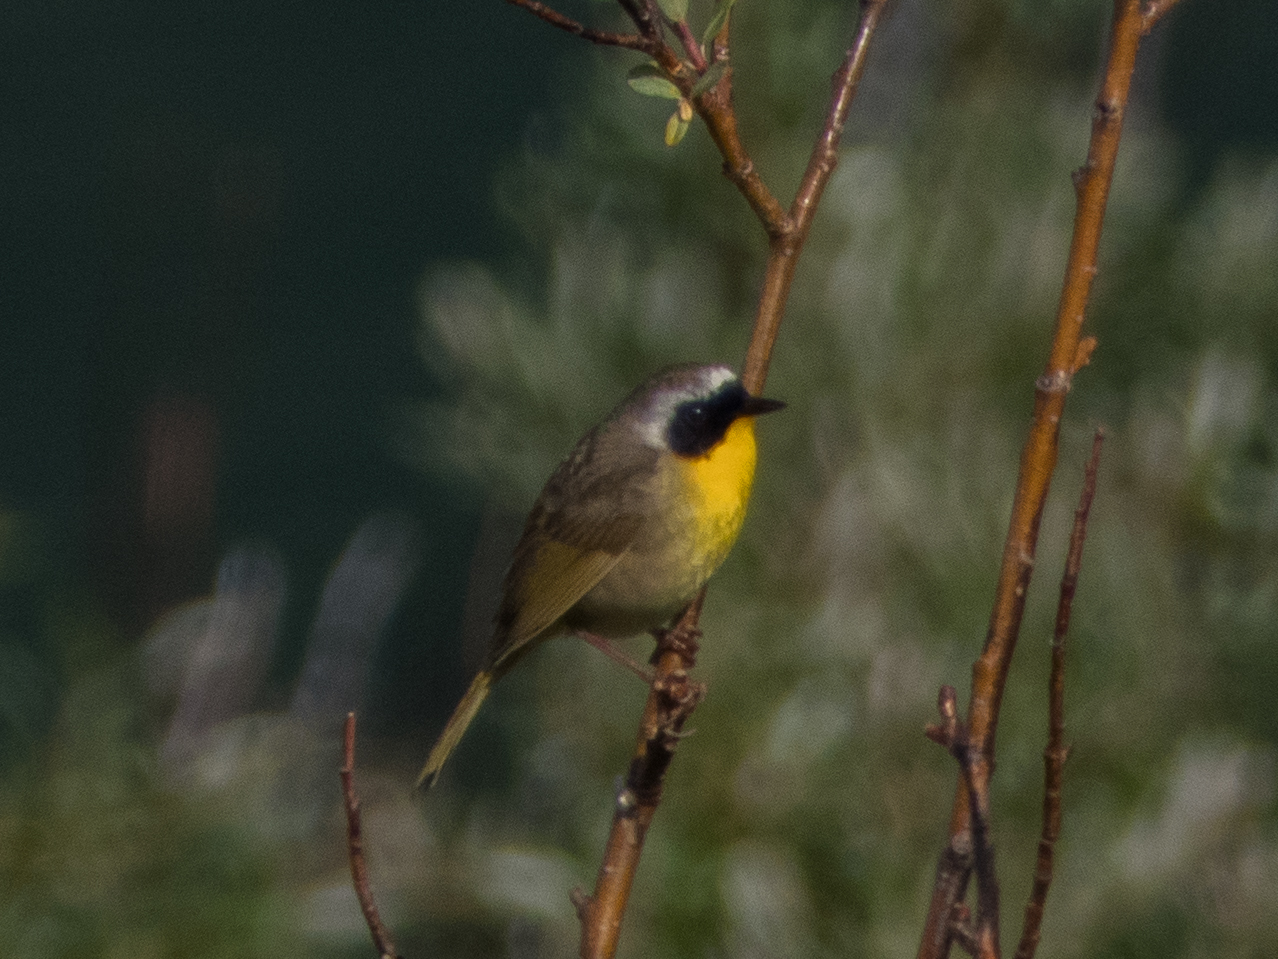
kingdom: Animalia
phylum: Chordata
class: Aves
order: Passeriformes
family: Parulidae
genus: Geothlypis
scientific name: Geothlypis trichas
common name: Common yellowthroat
